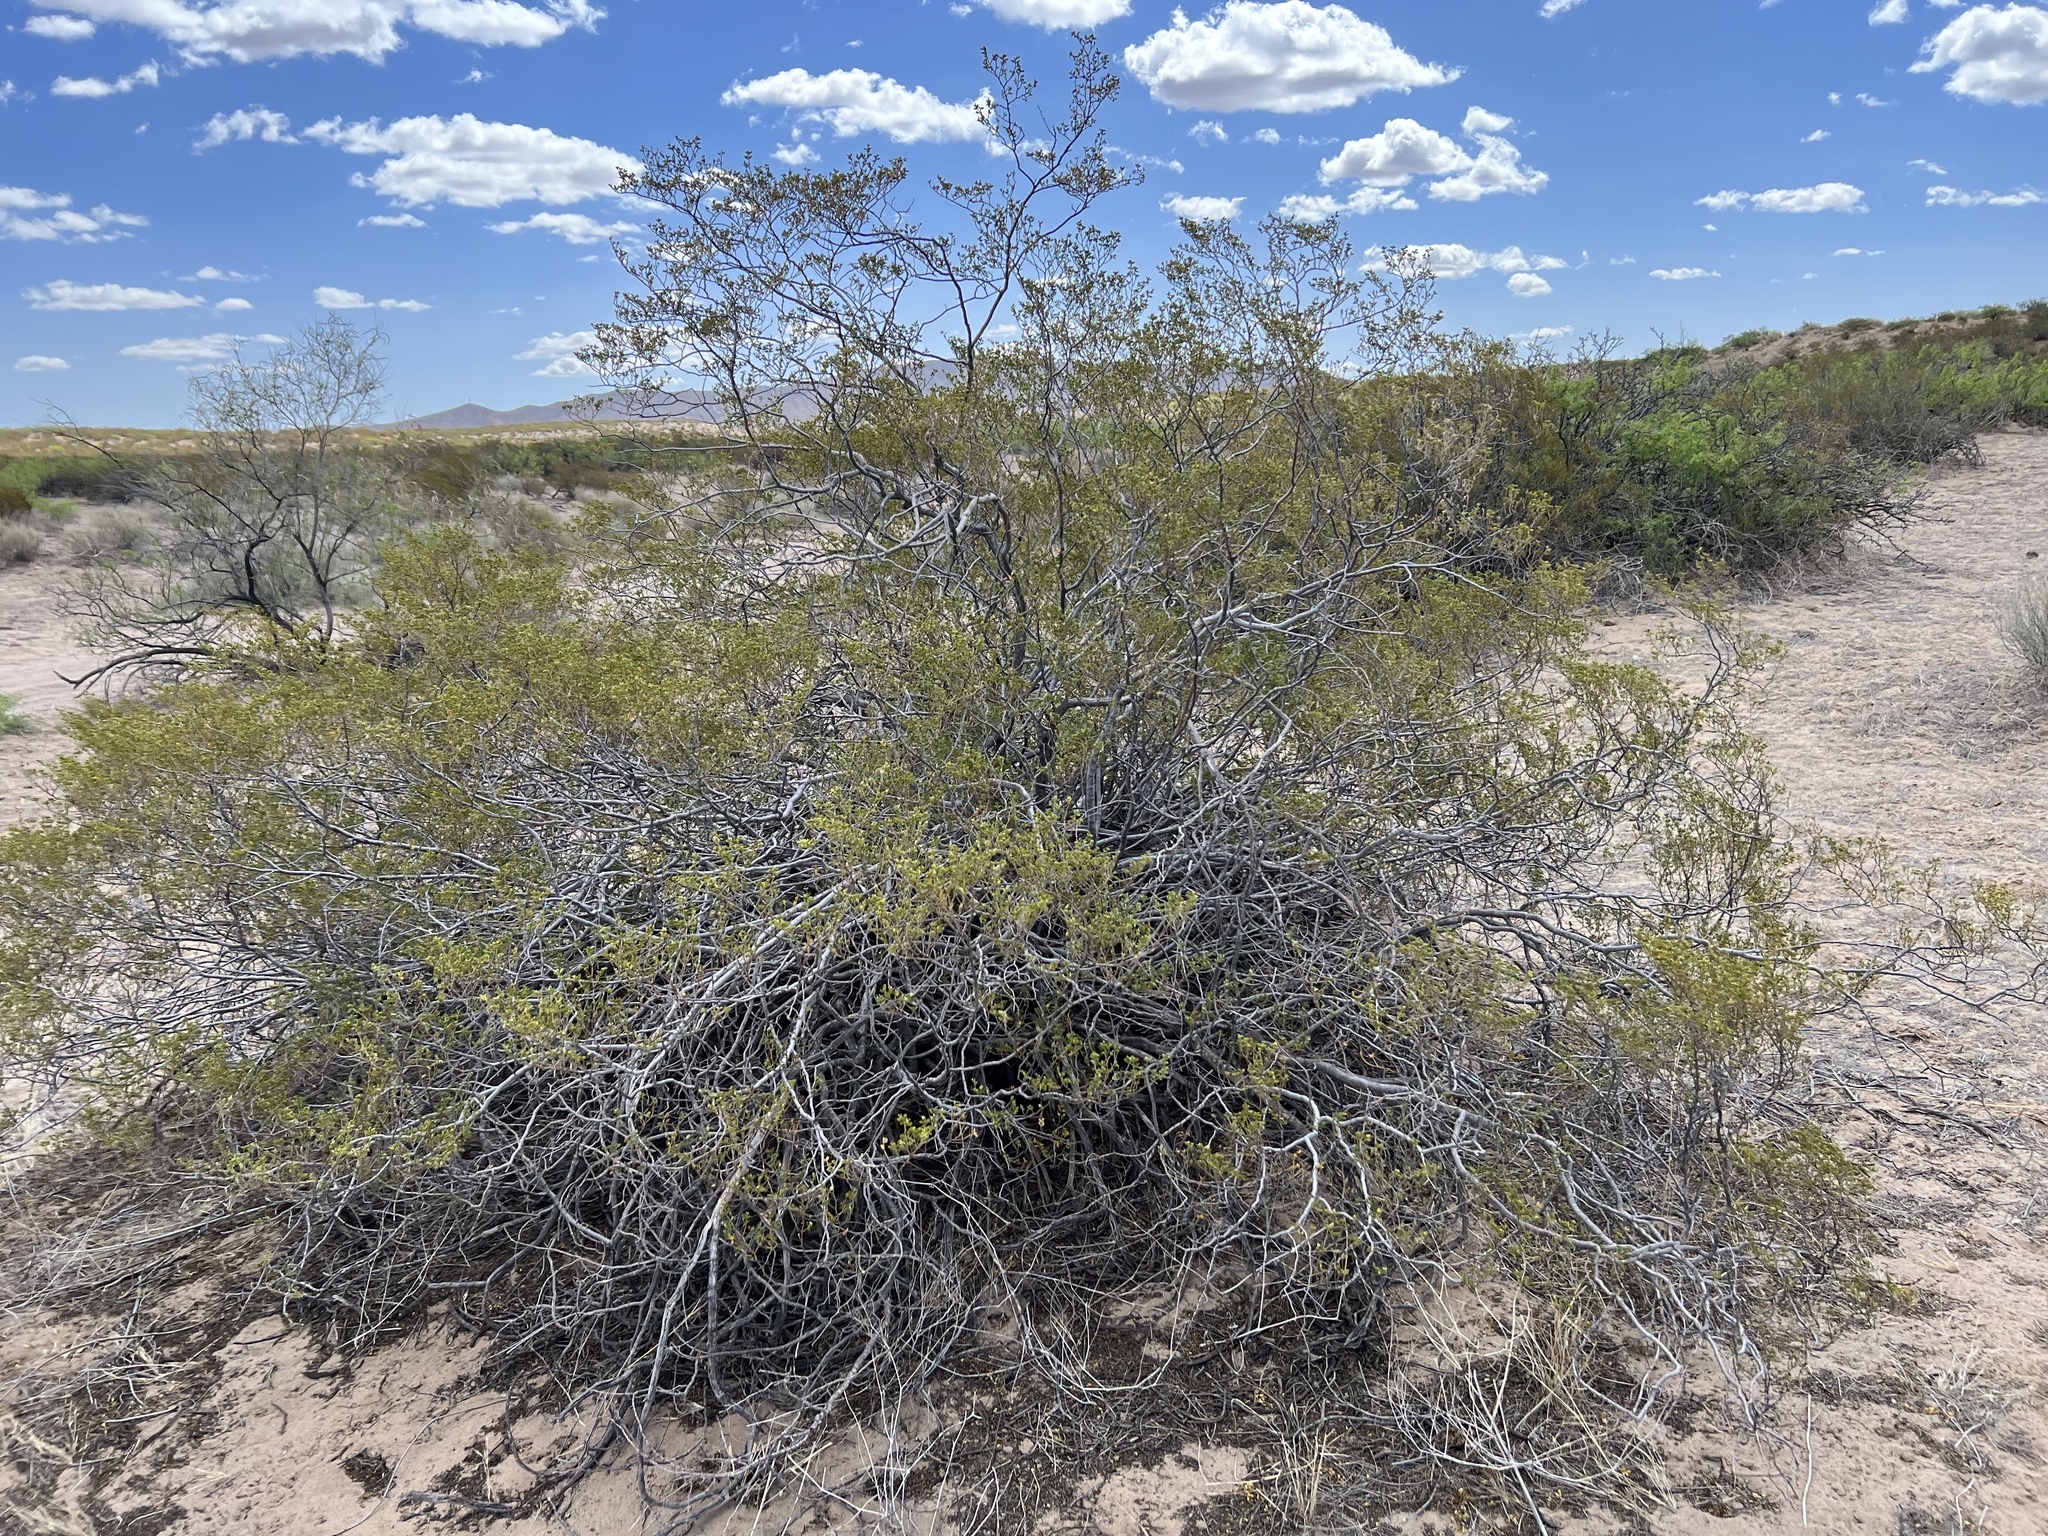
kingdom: Plantae
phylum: Tracheophyta
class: Magnoliopsida
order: Zygophyllales
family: Zygophyllaceae
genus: Larrea
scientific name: Larrea tridentata
